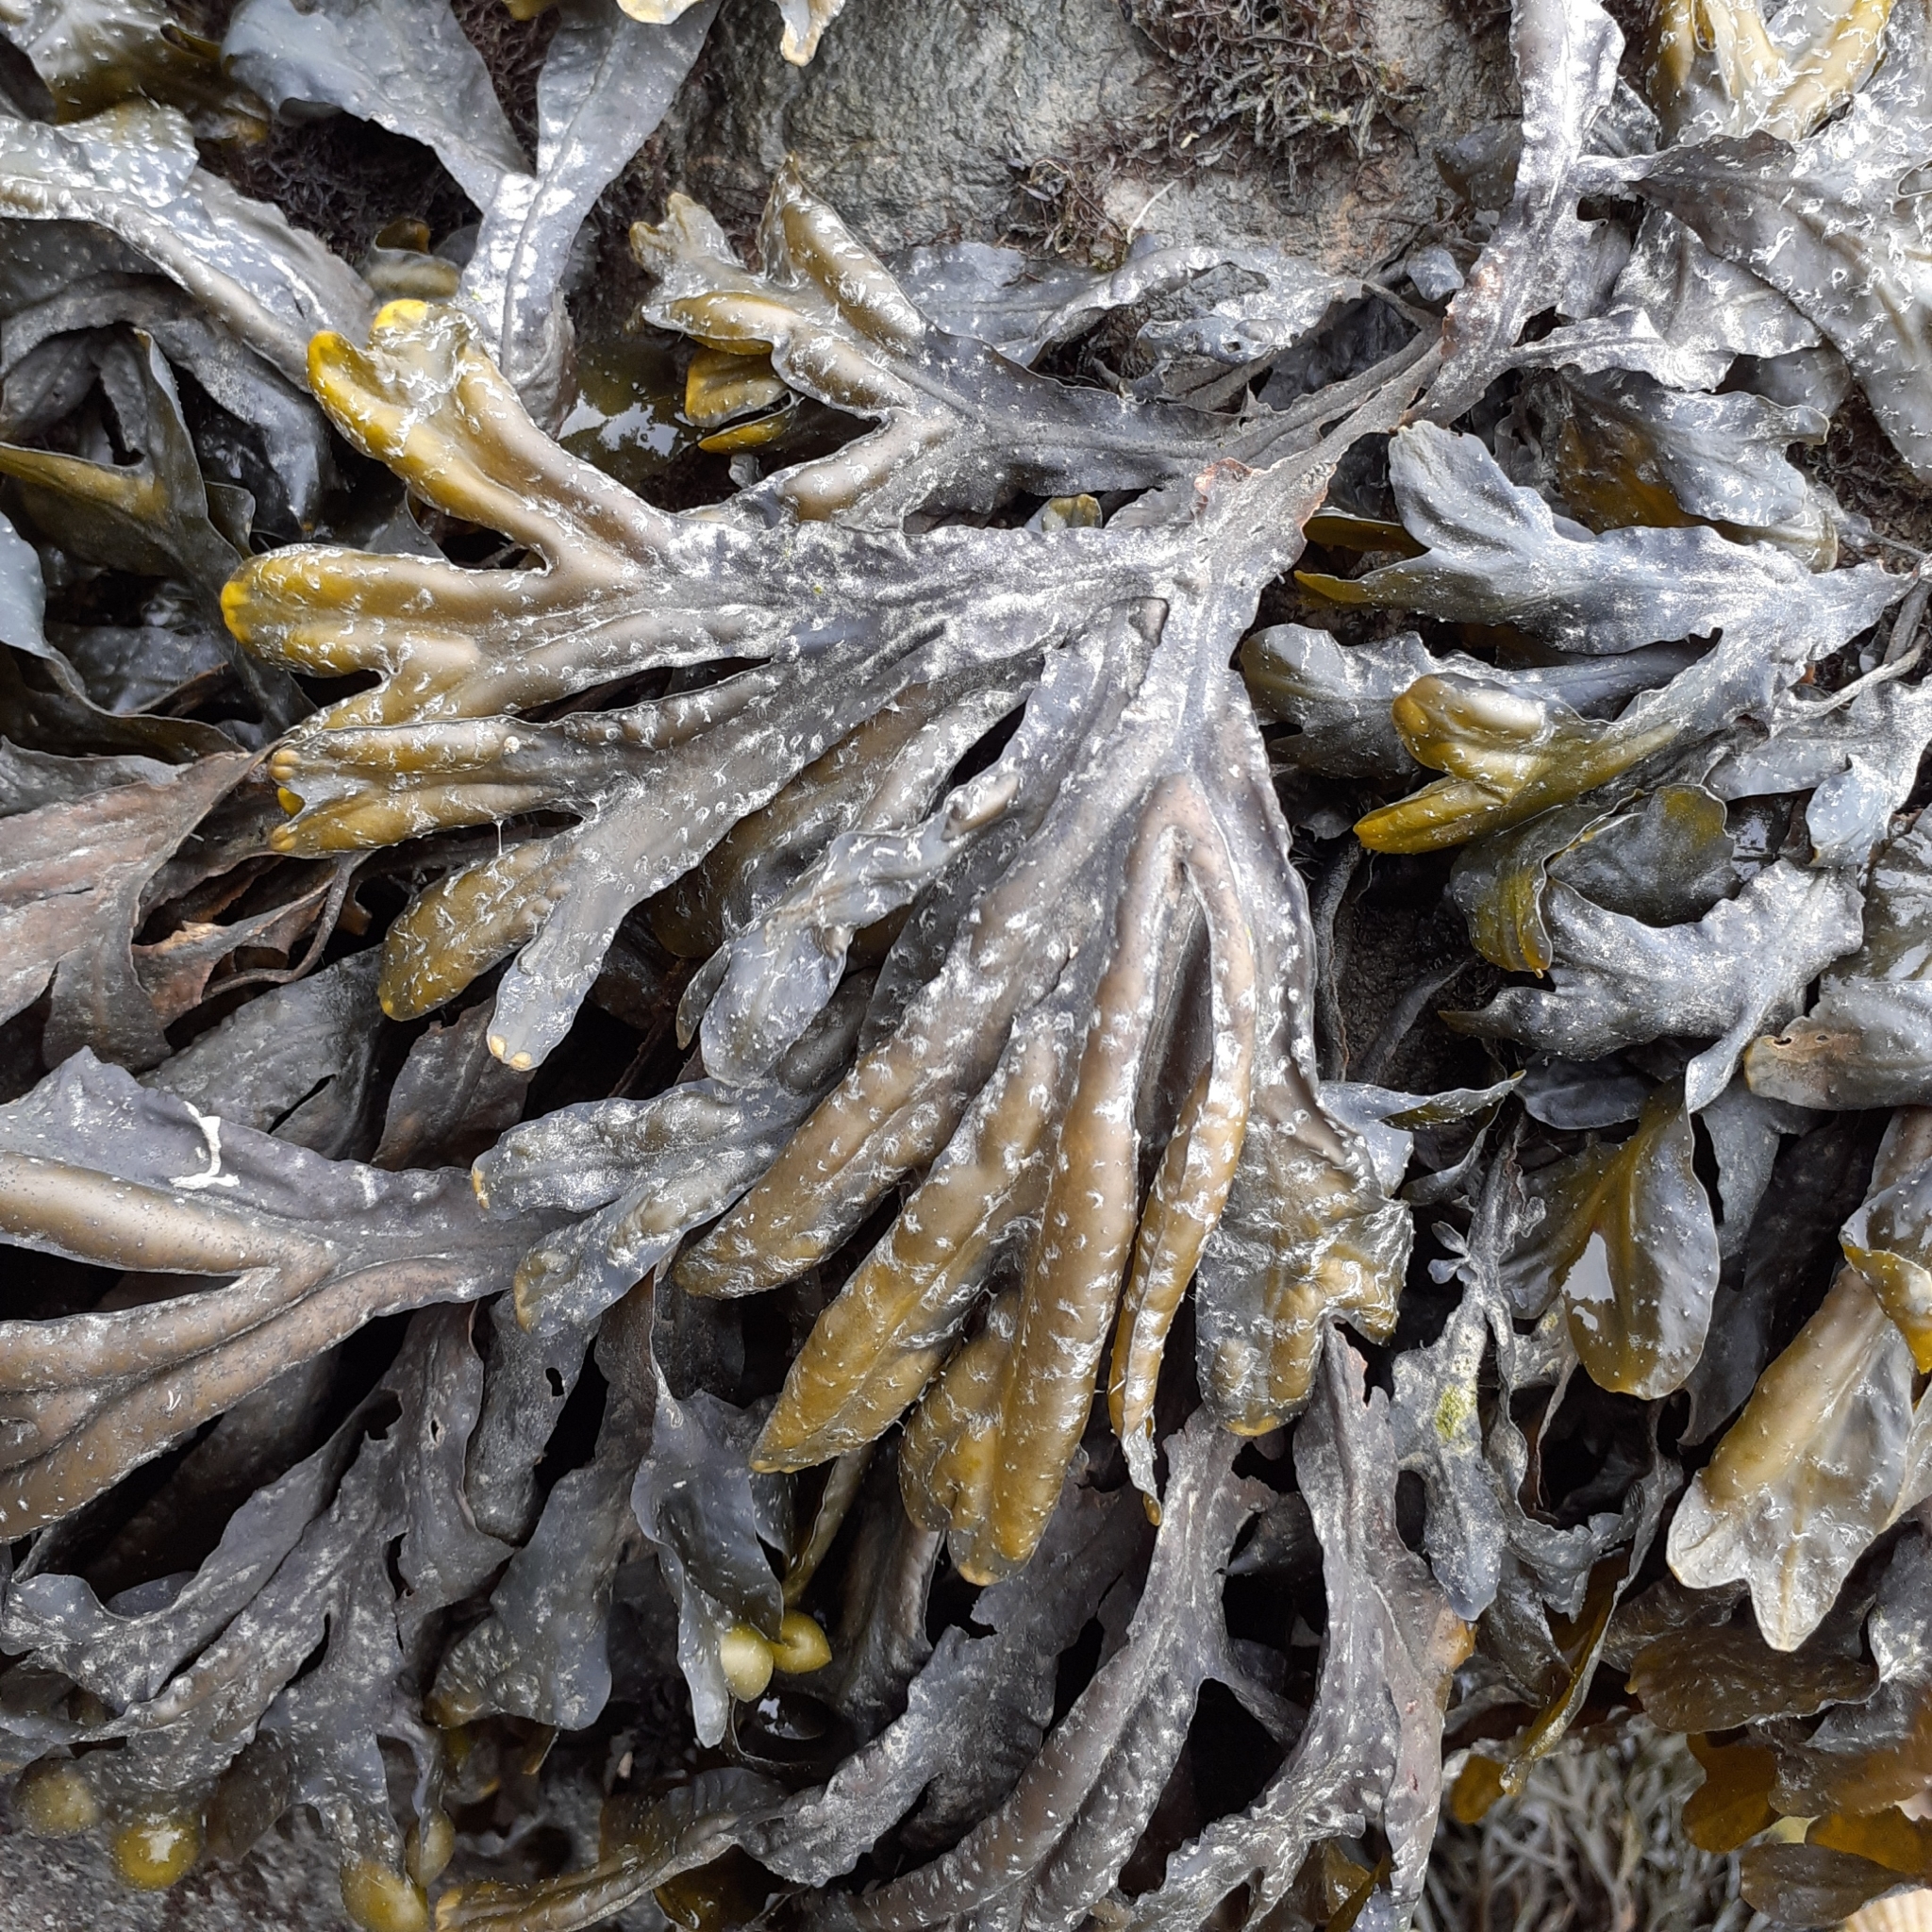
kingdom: Chromista
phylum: Ochrophyta
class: Phaeophyceae
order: Fucales
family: Fucaceae
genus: Fucus
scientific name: Fucus ceranoides
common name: Horned wrack
